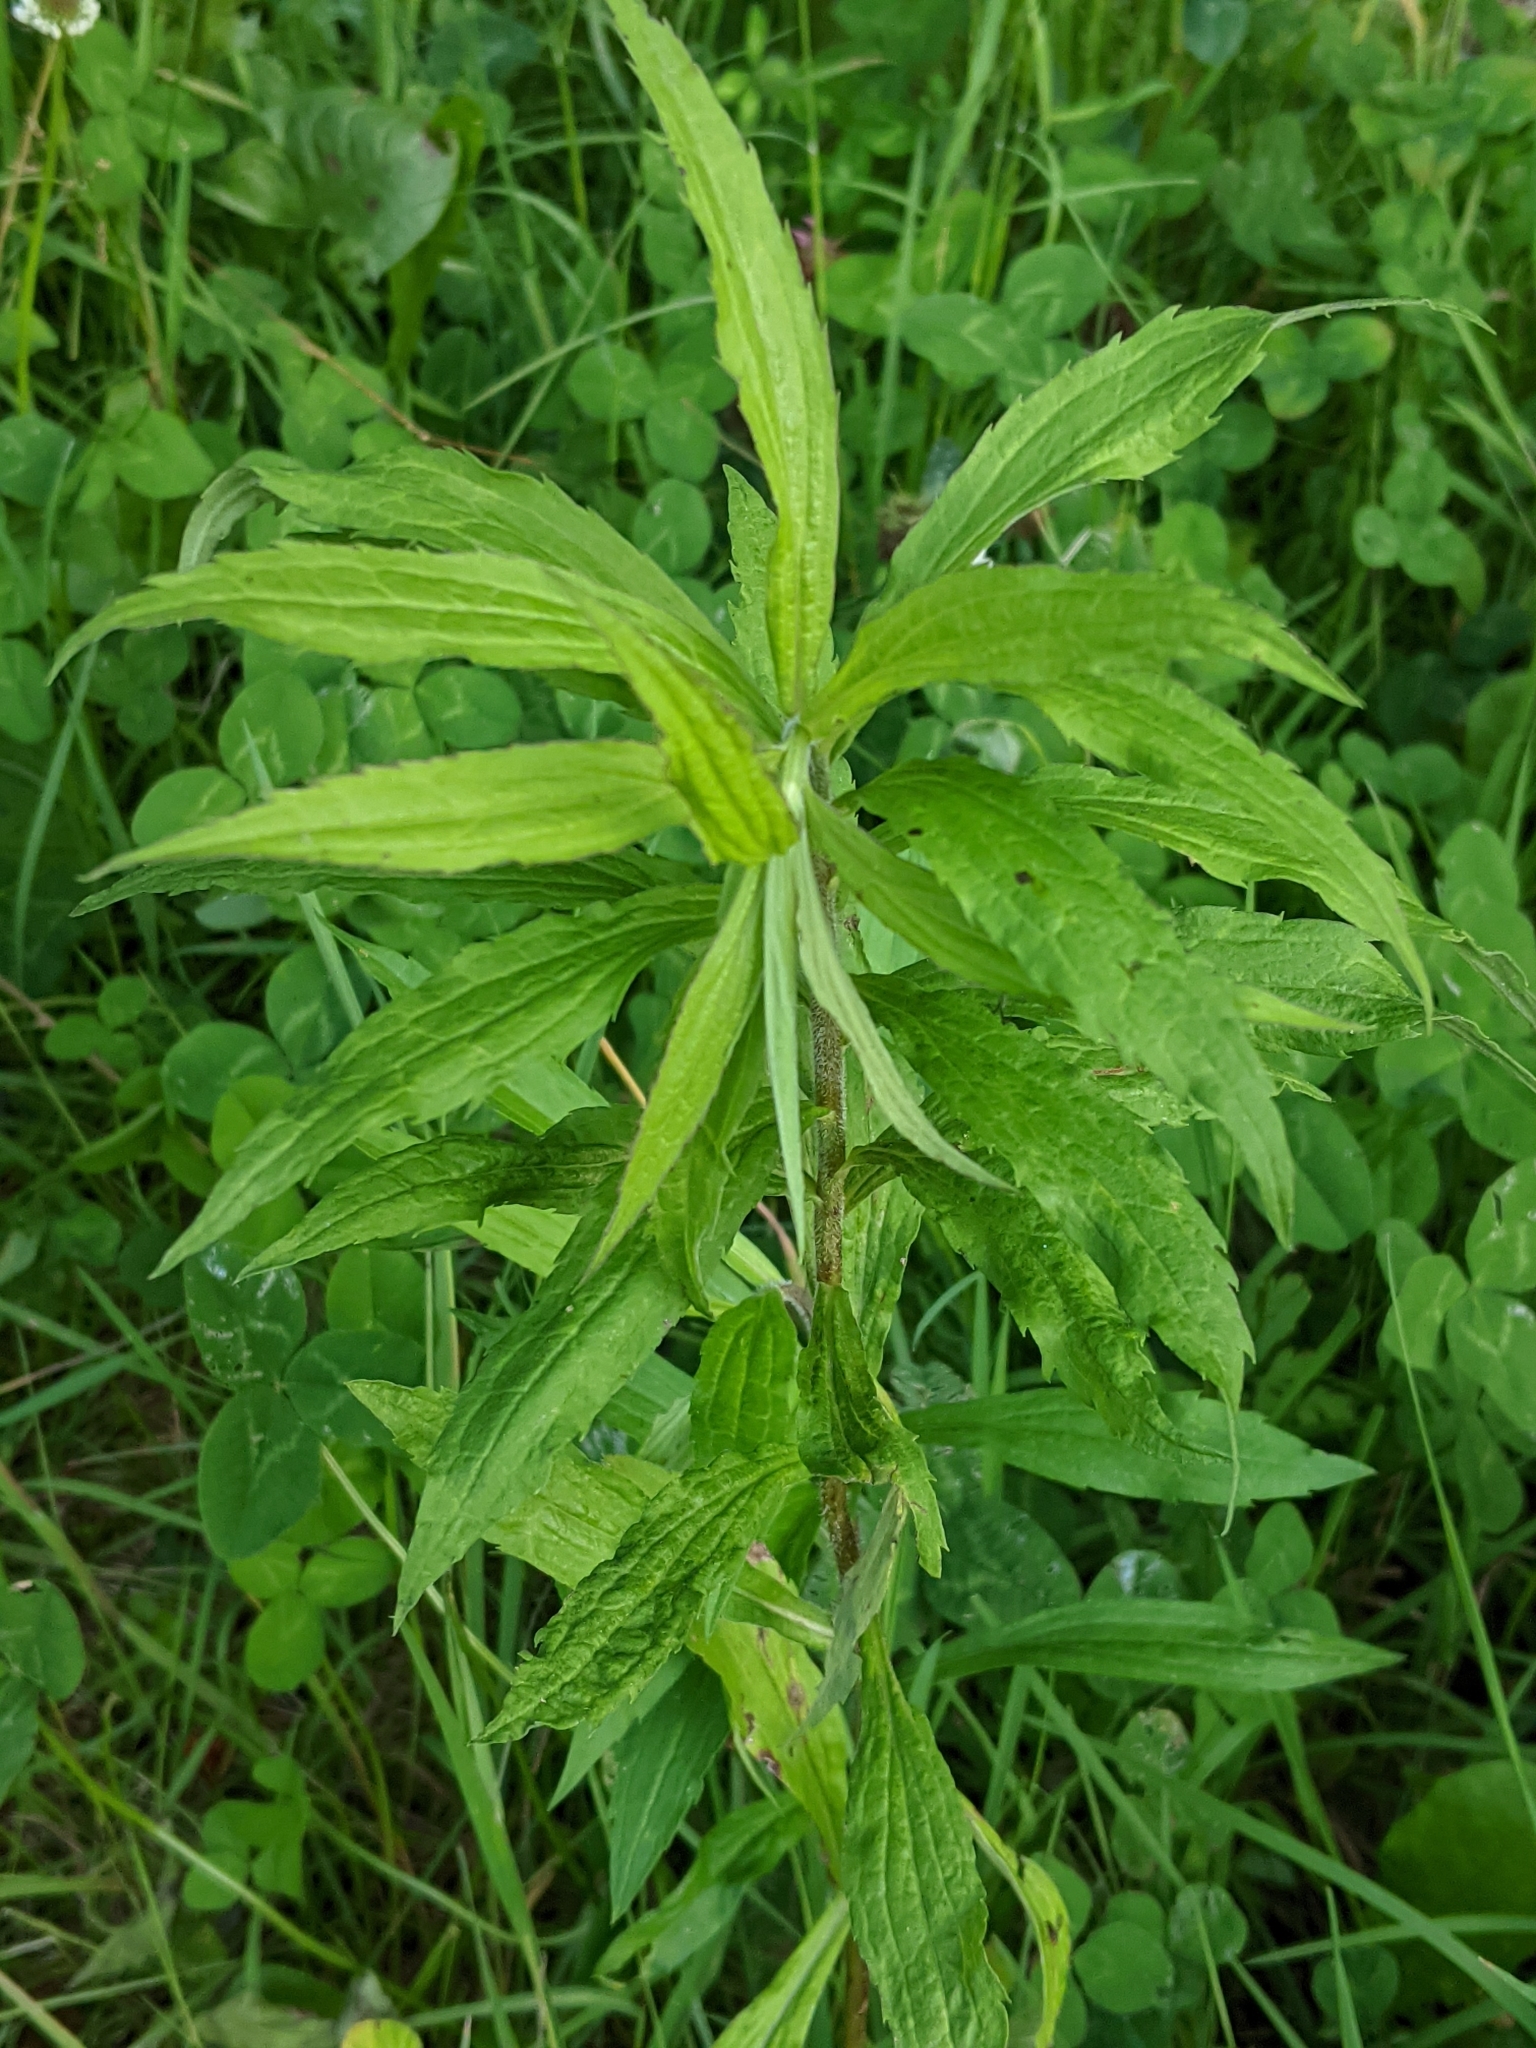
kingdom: Plantae
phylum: Tracheophyta
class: Magnoliopsida
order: Asterales
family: Asteraceae
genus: Solidago
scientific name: Solidago canadensis
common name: Canada goldenrod
